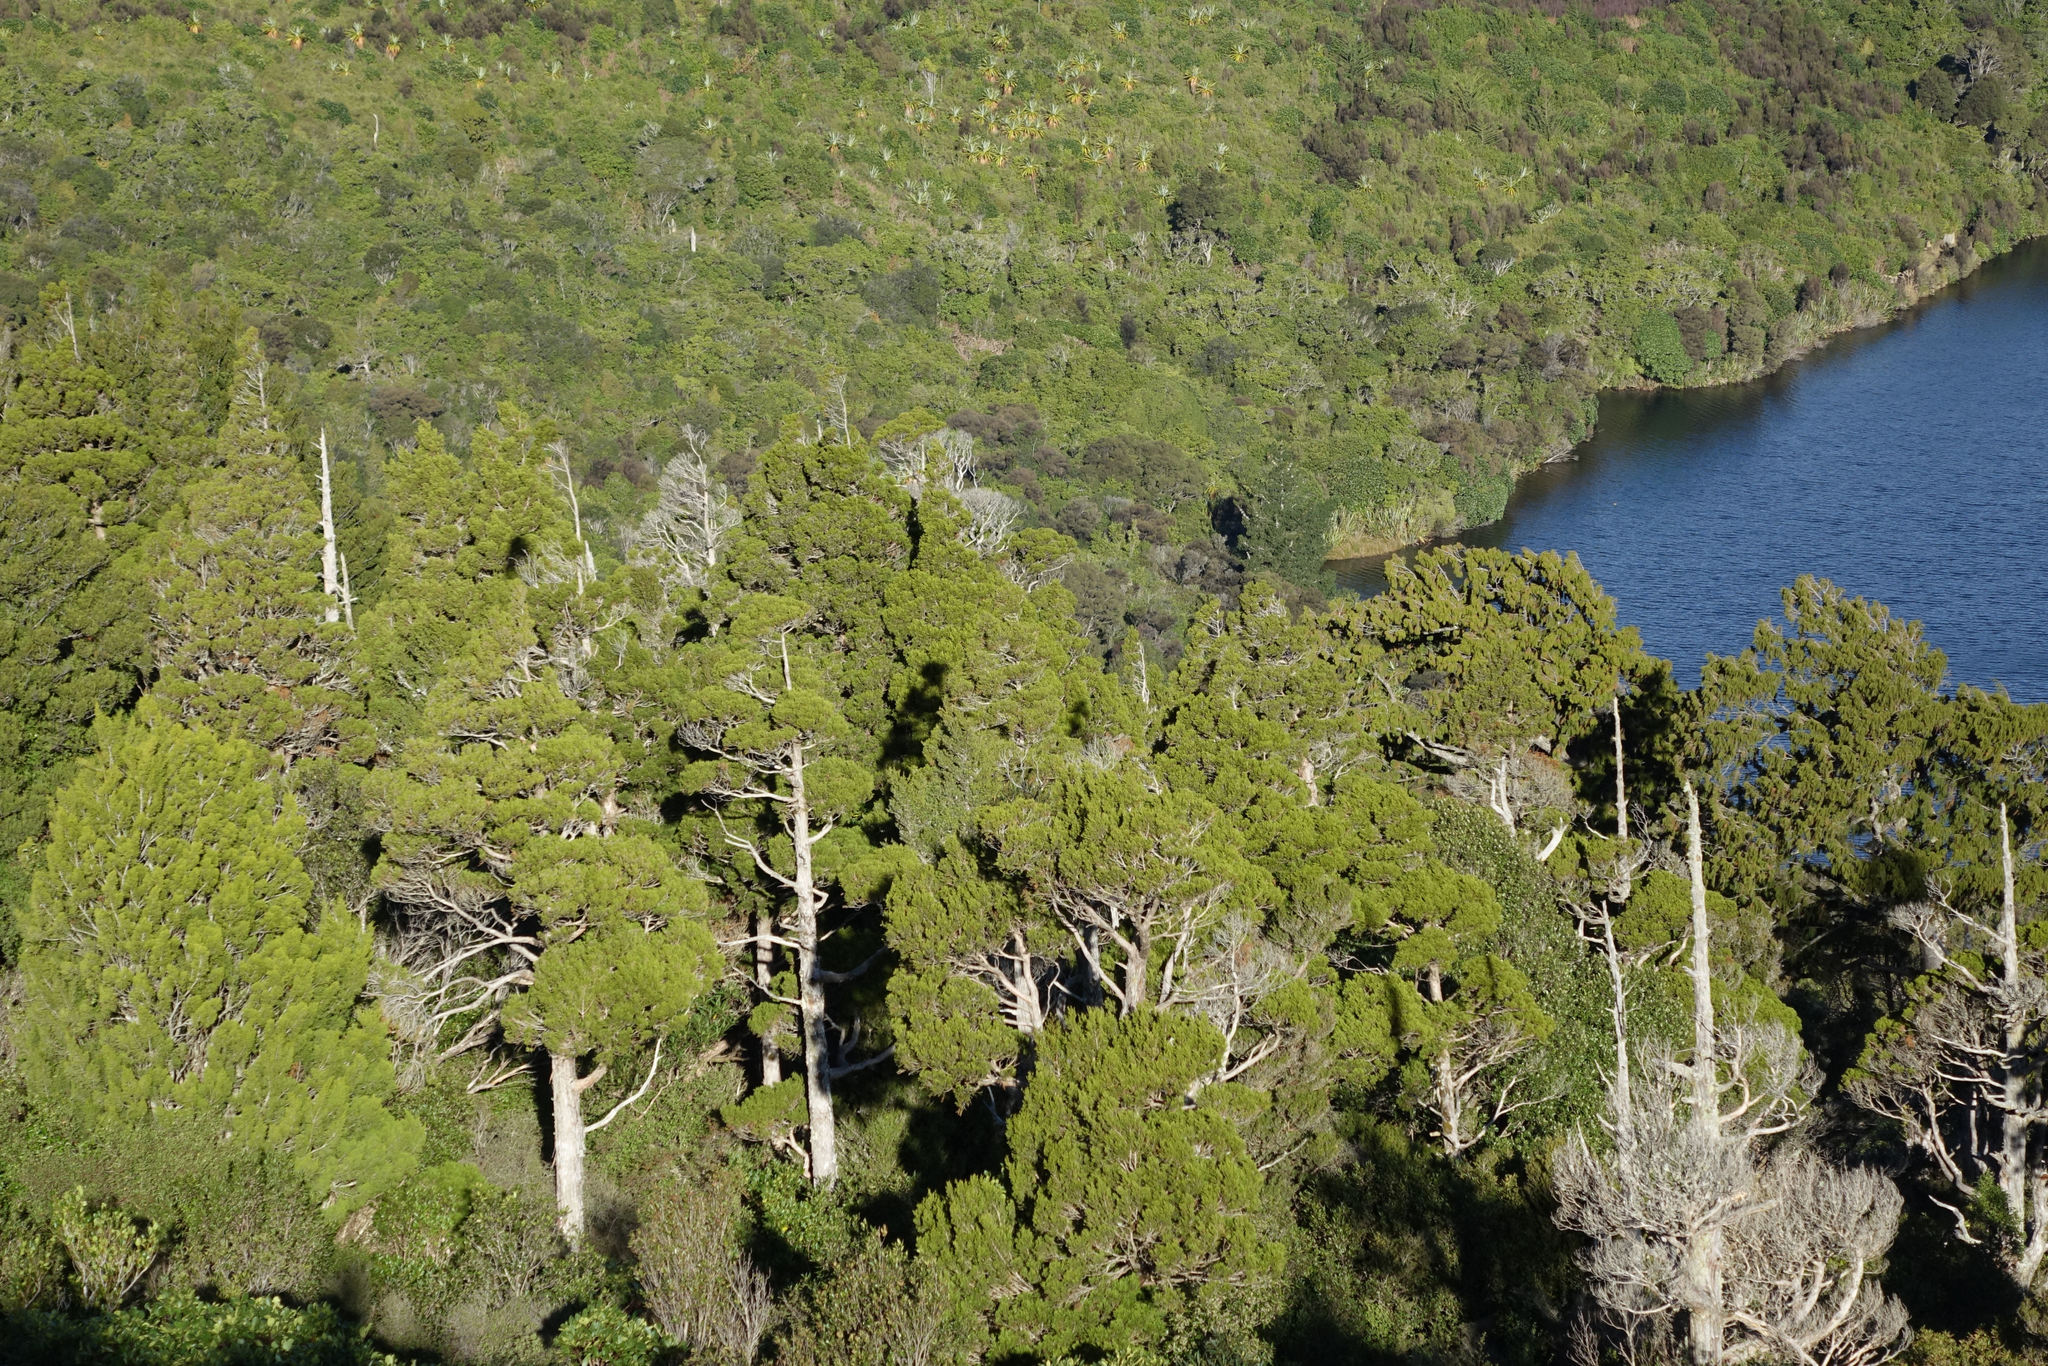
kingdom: Plantae
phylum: Tracheophyta
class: Pinopsida
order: Pinales
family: Cupressaceae
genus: Libocedrus
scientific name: Libocedrus bidwillii
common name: Cedar
